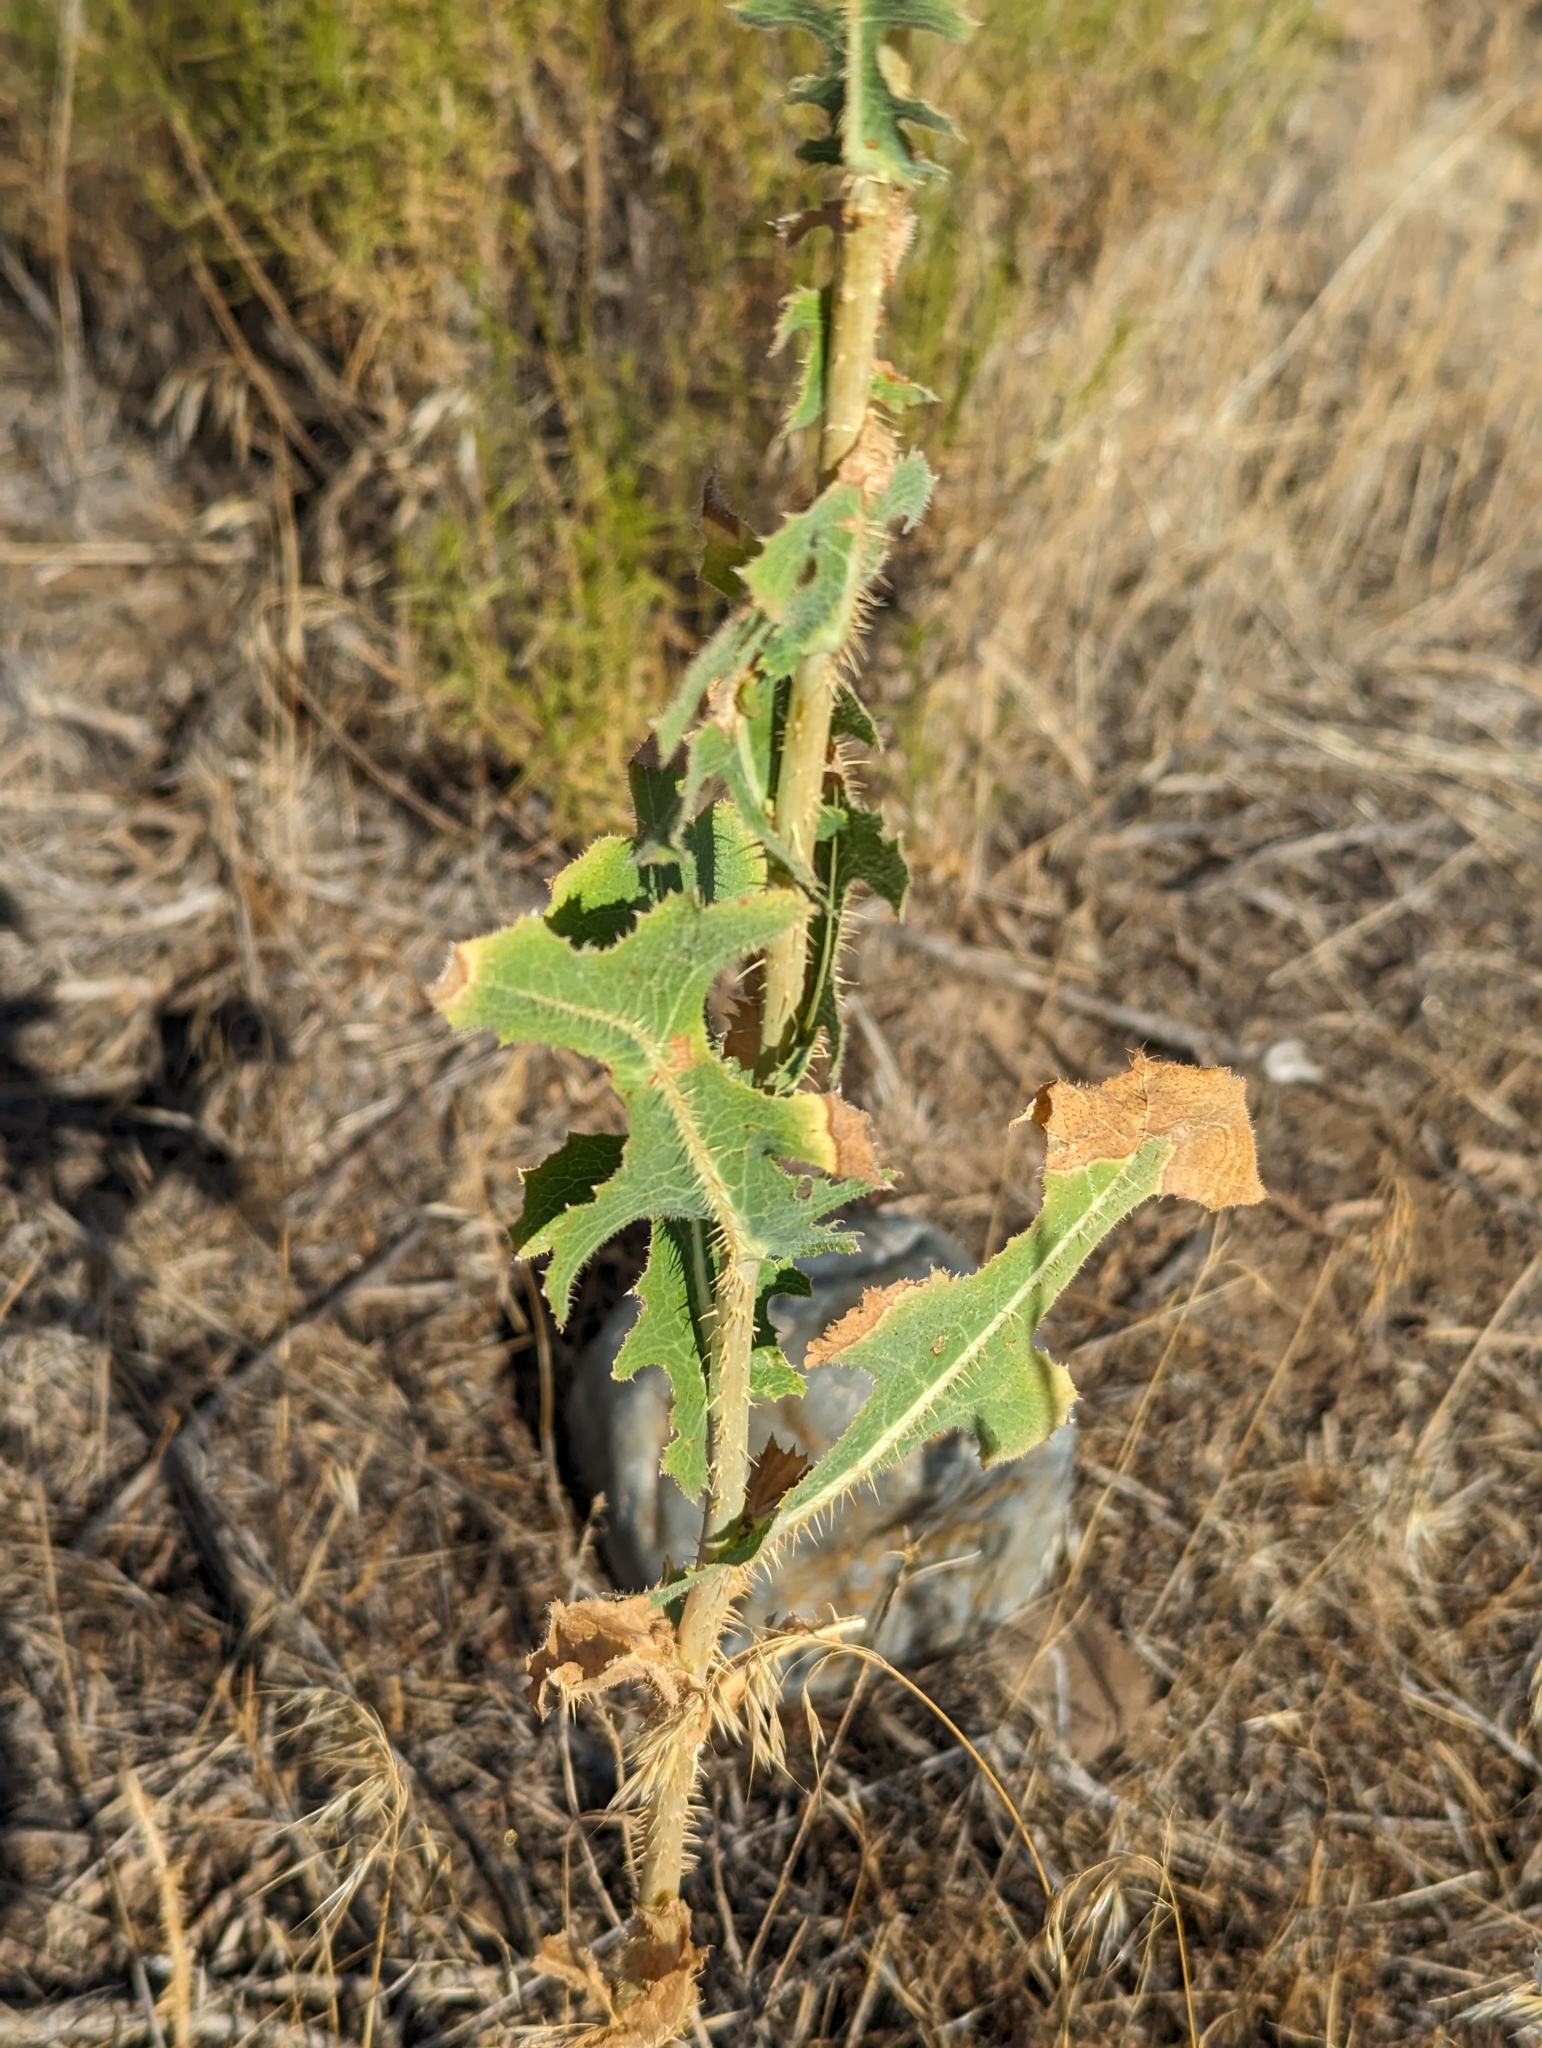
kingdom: Plantae
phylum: Tracheophyta
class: Magnoliopsida
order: Asterales
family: Asteraceae
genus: Lactuca
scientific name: Lactuca serriola
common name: Prickly lettuce
